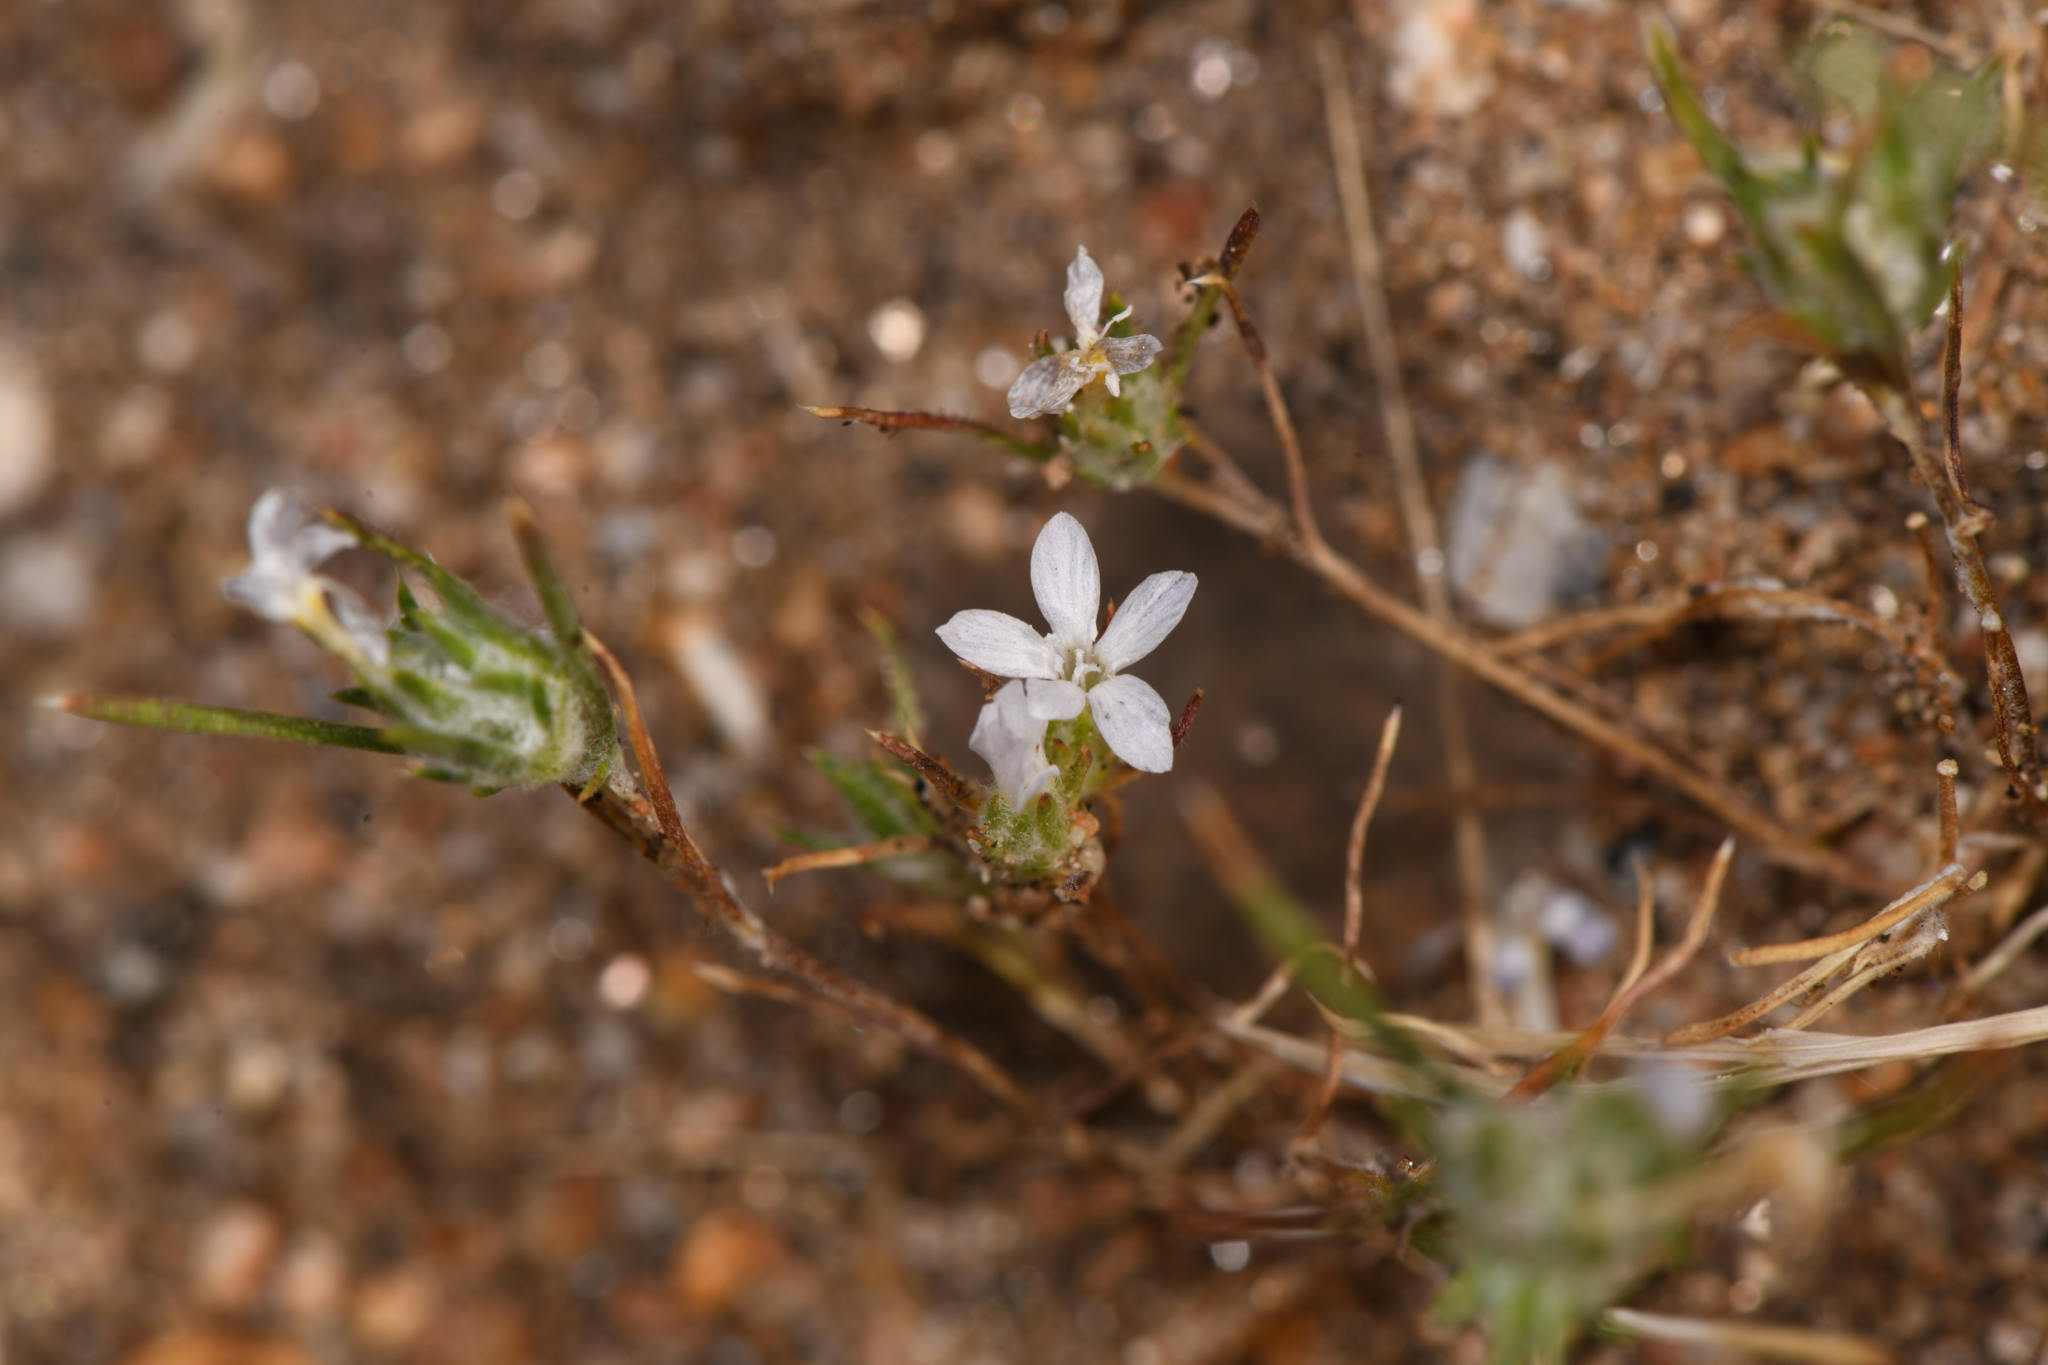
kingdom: Plantae
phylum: Tracheophyta
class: Magnoliopsida
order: Ericales
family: Polemoniaceae
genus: Eriastrum
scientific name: Eriastrum diffusum
